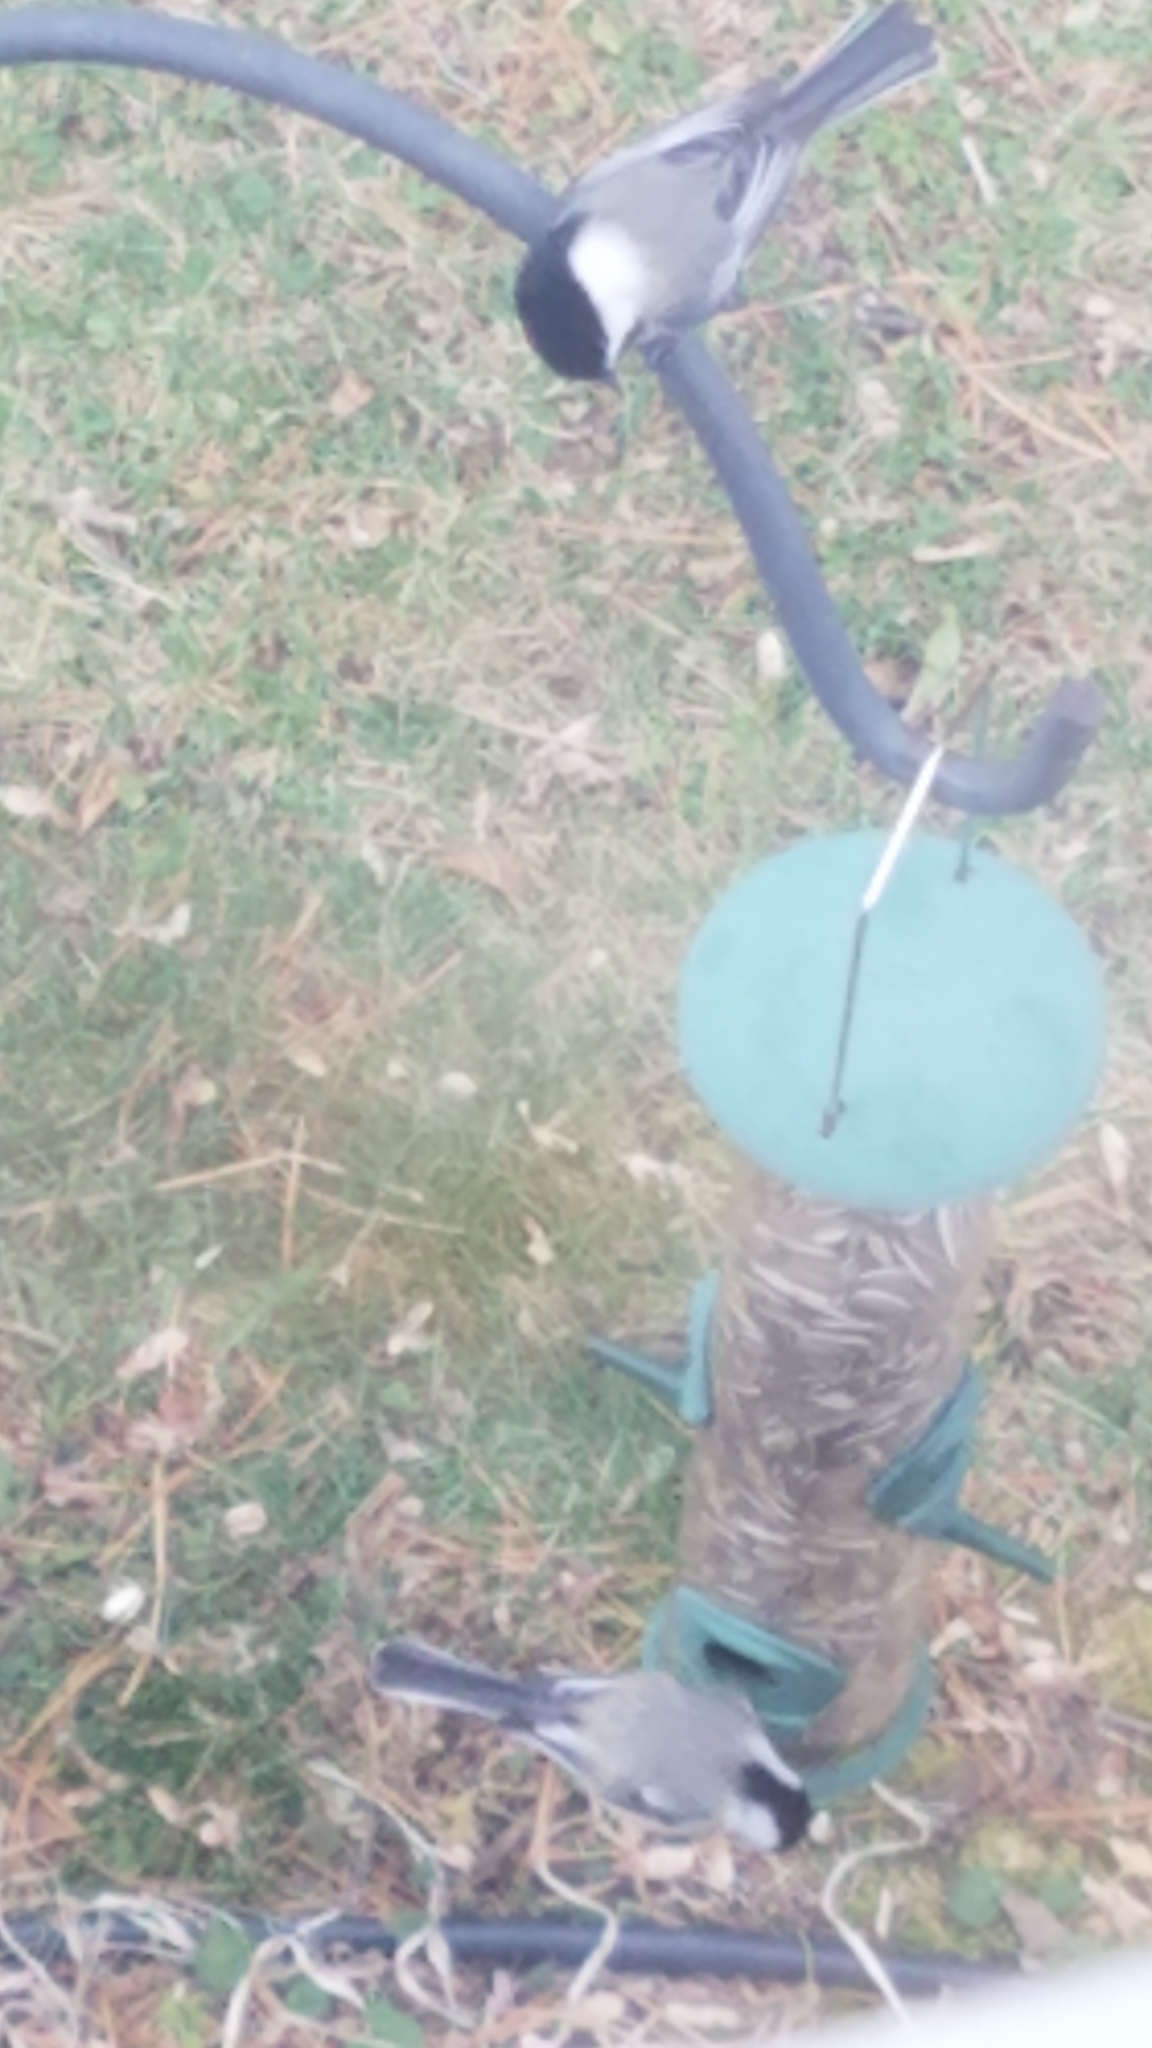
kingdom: Animalia
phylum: Chordata
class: Aves
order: Passeriformes
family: Paridae
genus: Poecile
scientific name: Poecile atricapillus
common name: Black-capped chickadee
